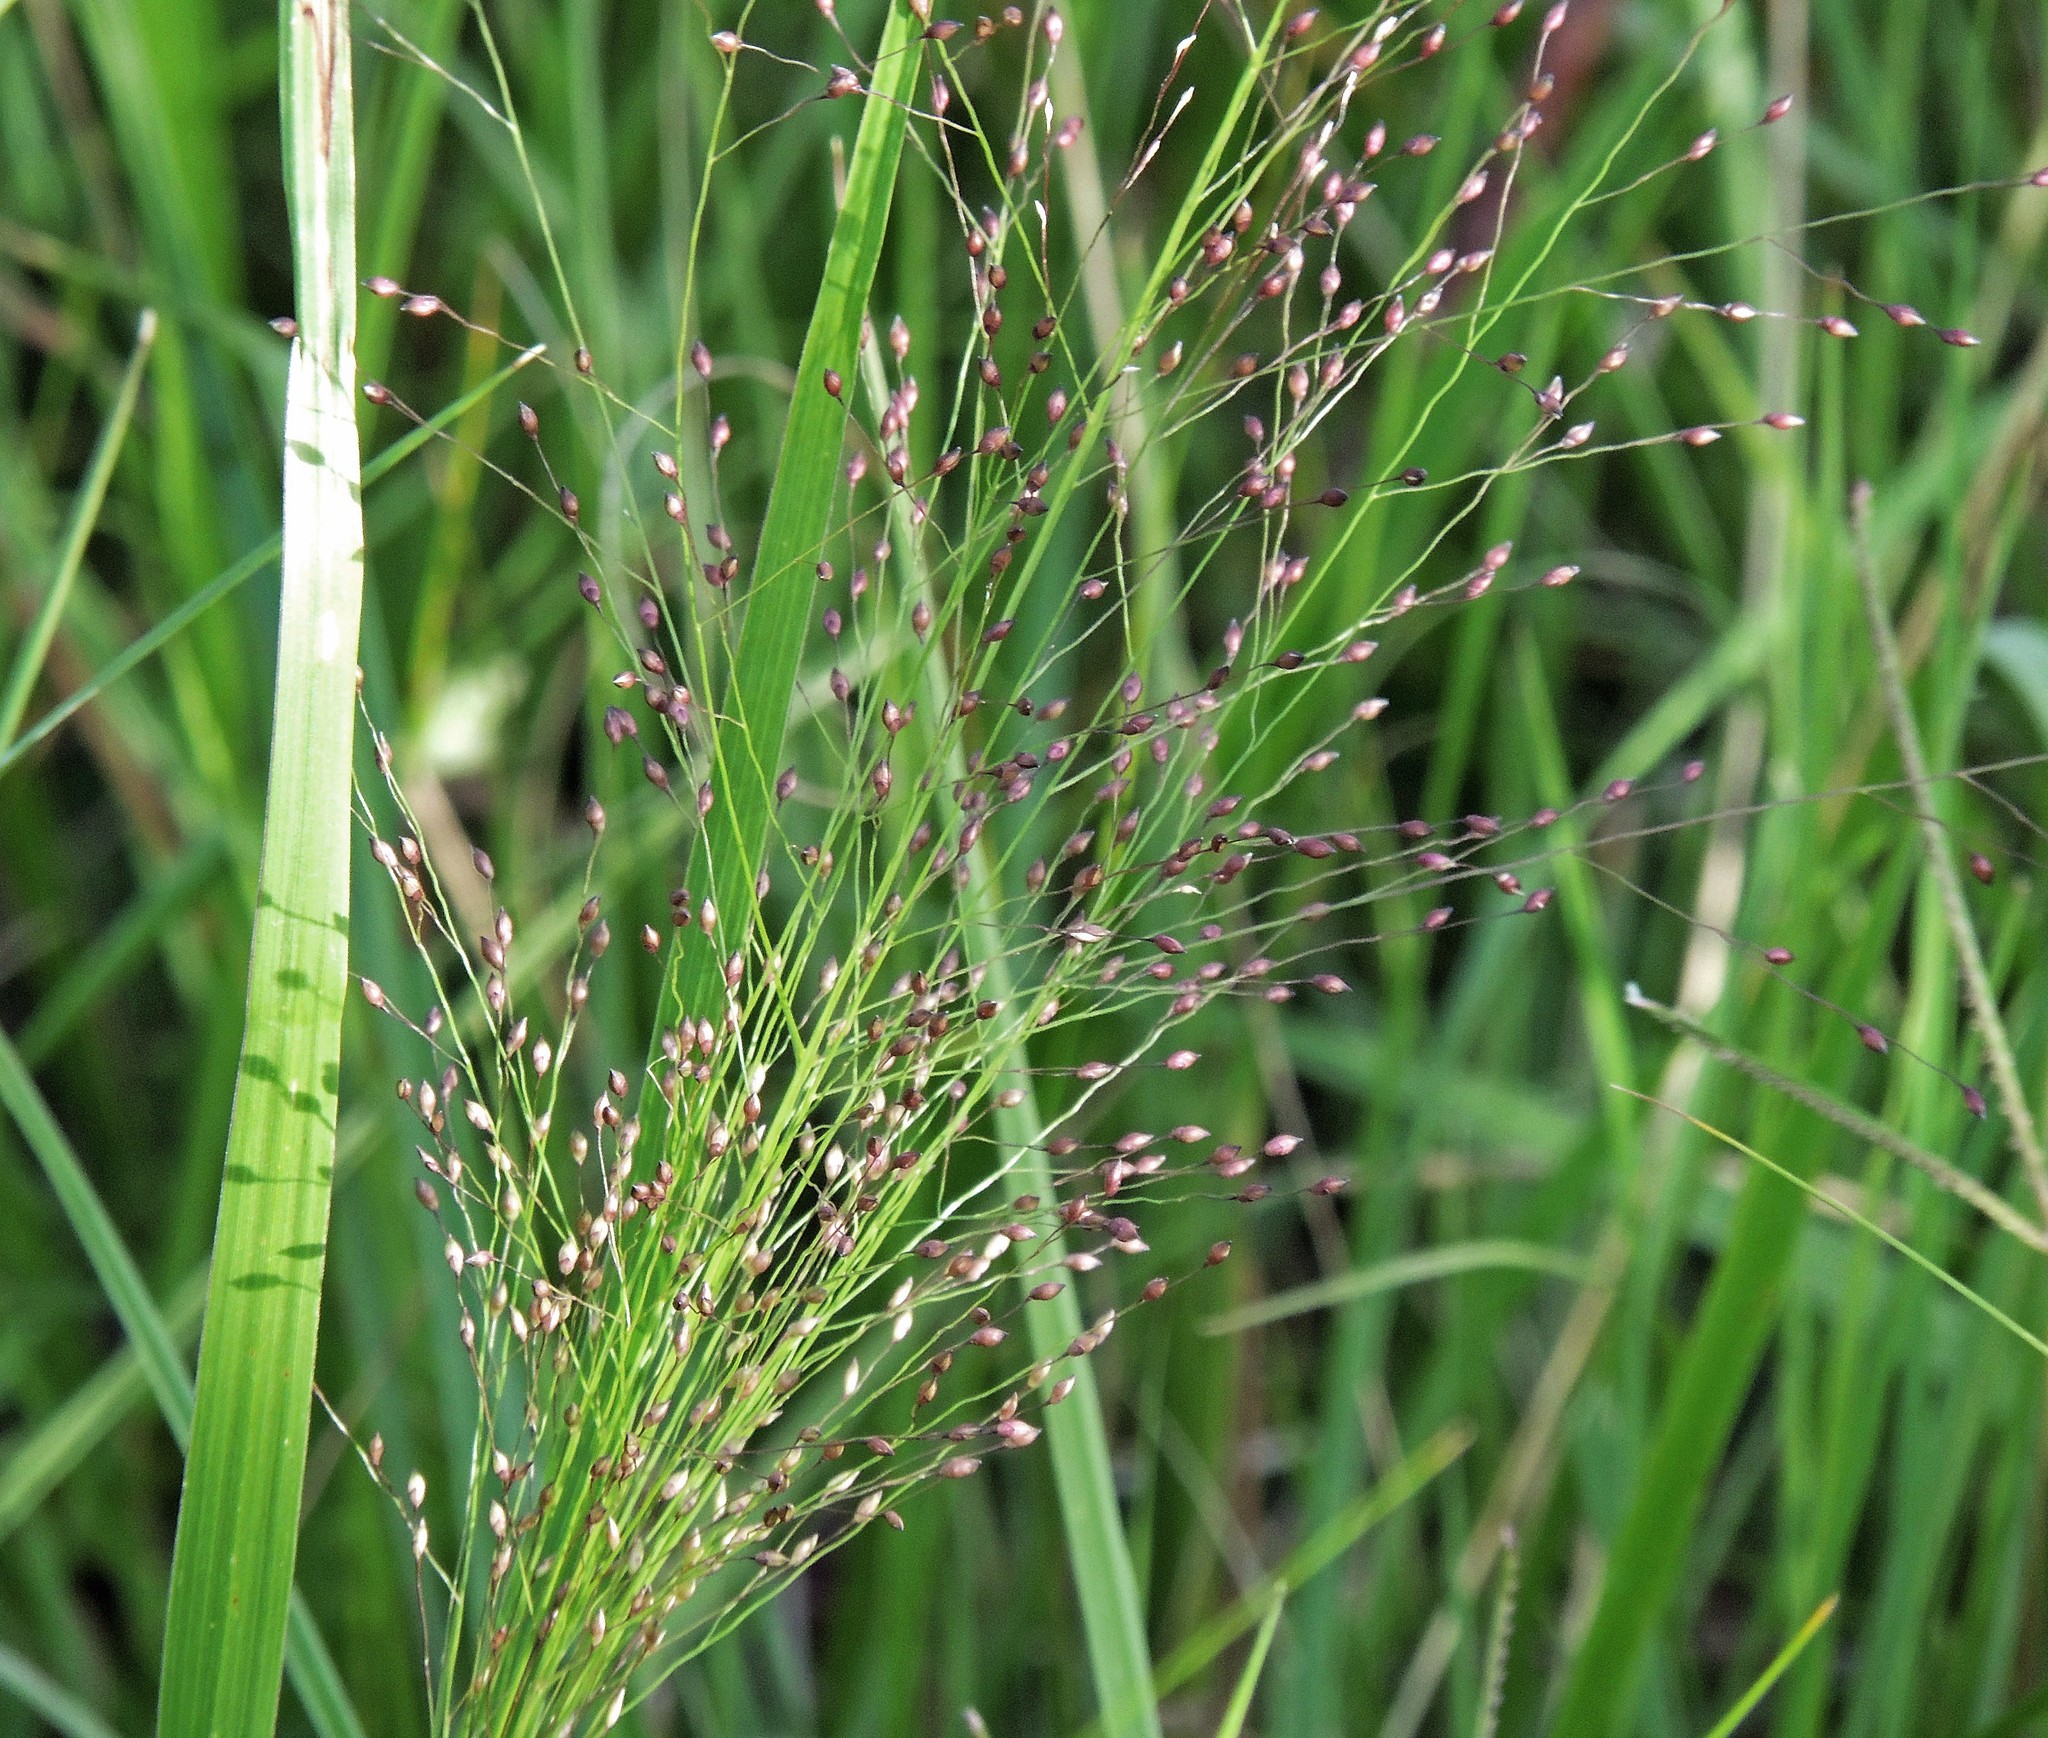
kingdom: Plantae
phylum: Tracheophyta
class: Liliopsida
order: Poales
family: Poaceae
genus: Panicum
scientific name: Panicum capillare
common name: Witch-grass
